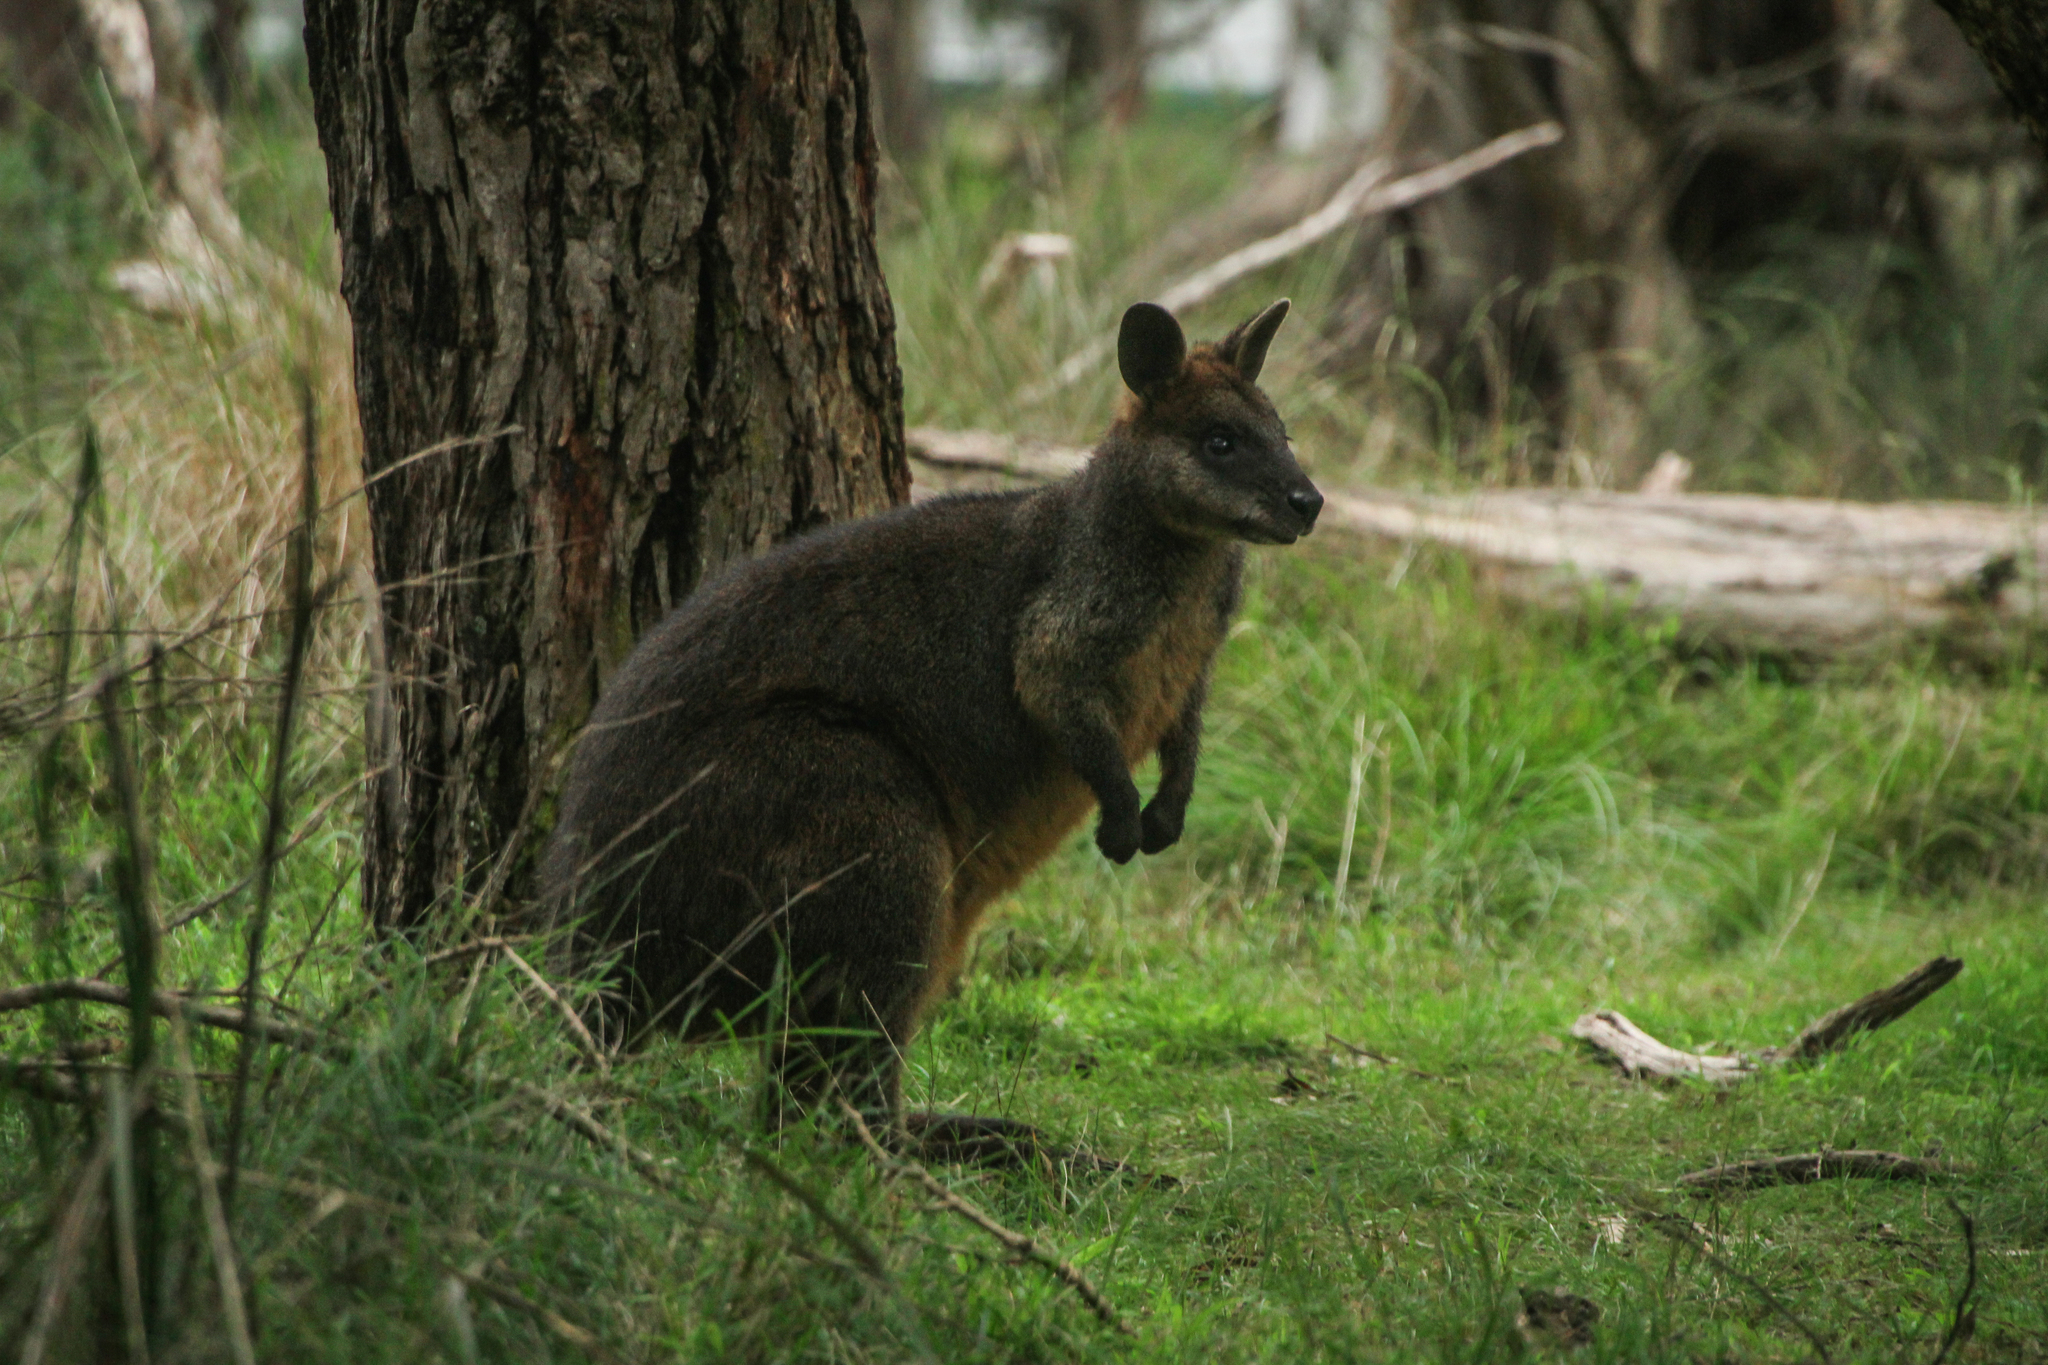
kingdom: Animalia
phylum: Chordata
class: Mammalia
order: Diprotodontia
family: Macropodidae
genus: Wallabia
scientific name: Wallabia bicolor
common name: Swamp wallaby
